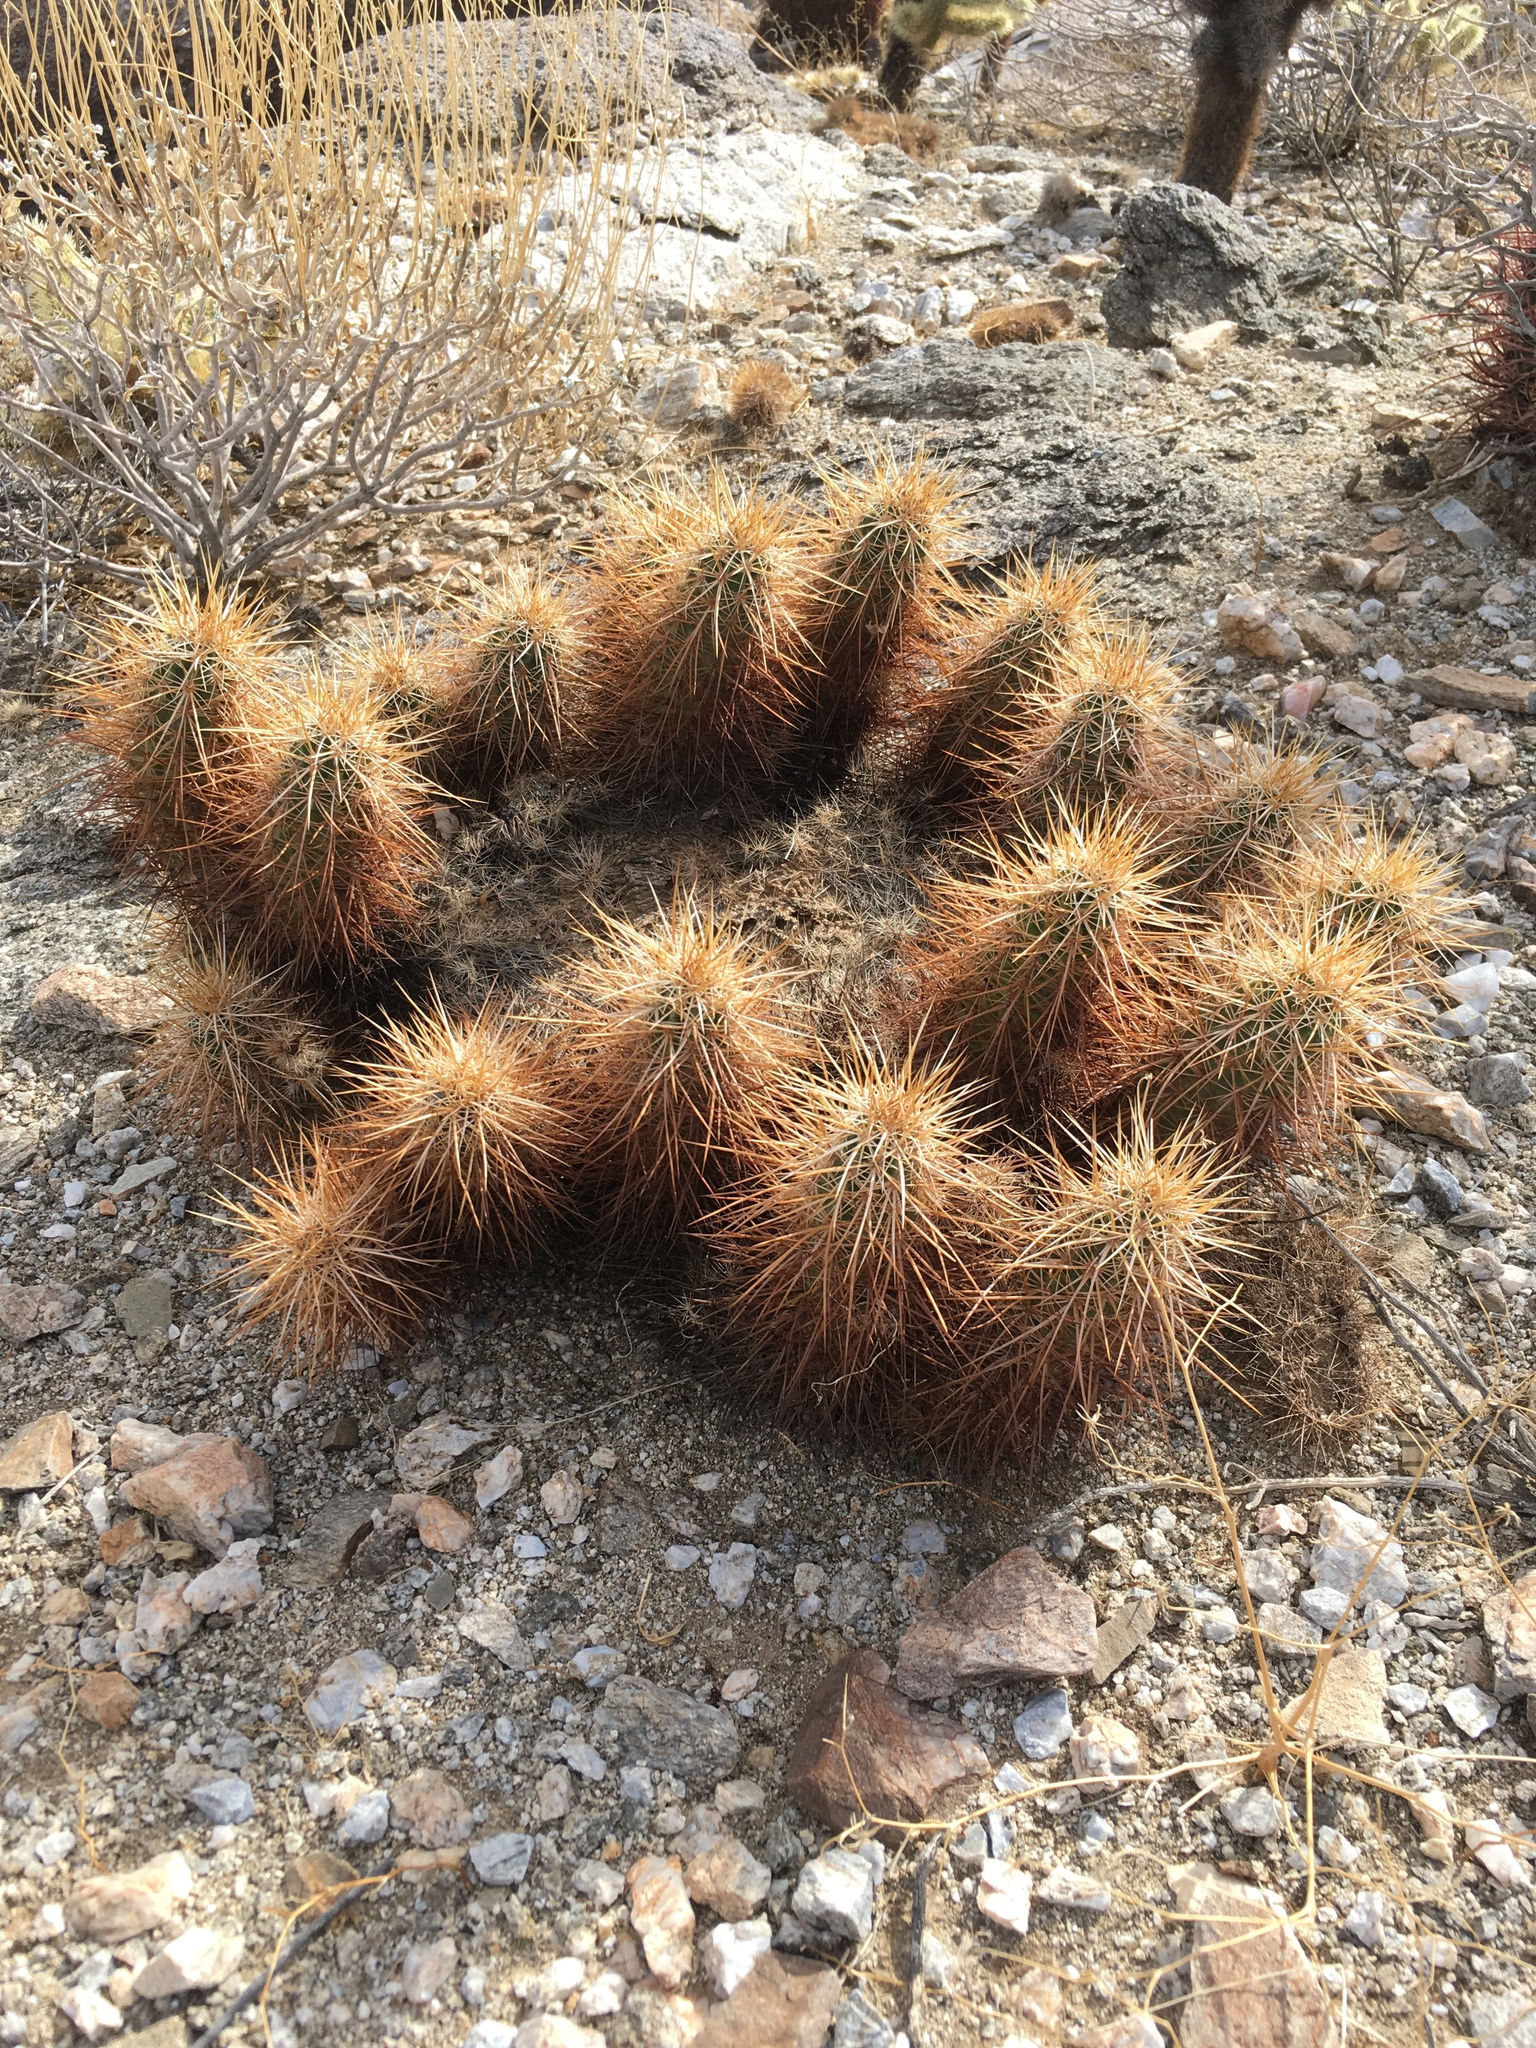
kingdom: Plantae
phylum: Tracheophyta
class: Magnoliopsida
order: Caryophyllales
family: Cactaceae
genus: Echinocereus
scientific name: Echinocereus engelmannii
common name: Engelmann's hedgehog cactus
